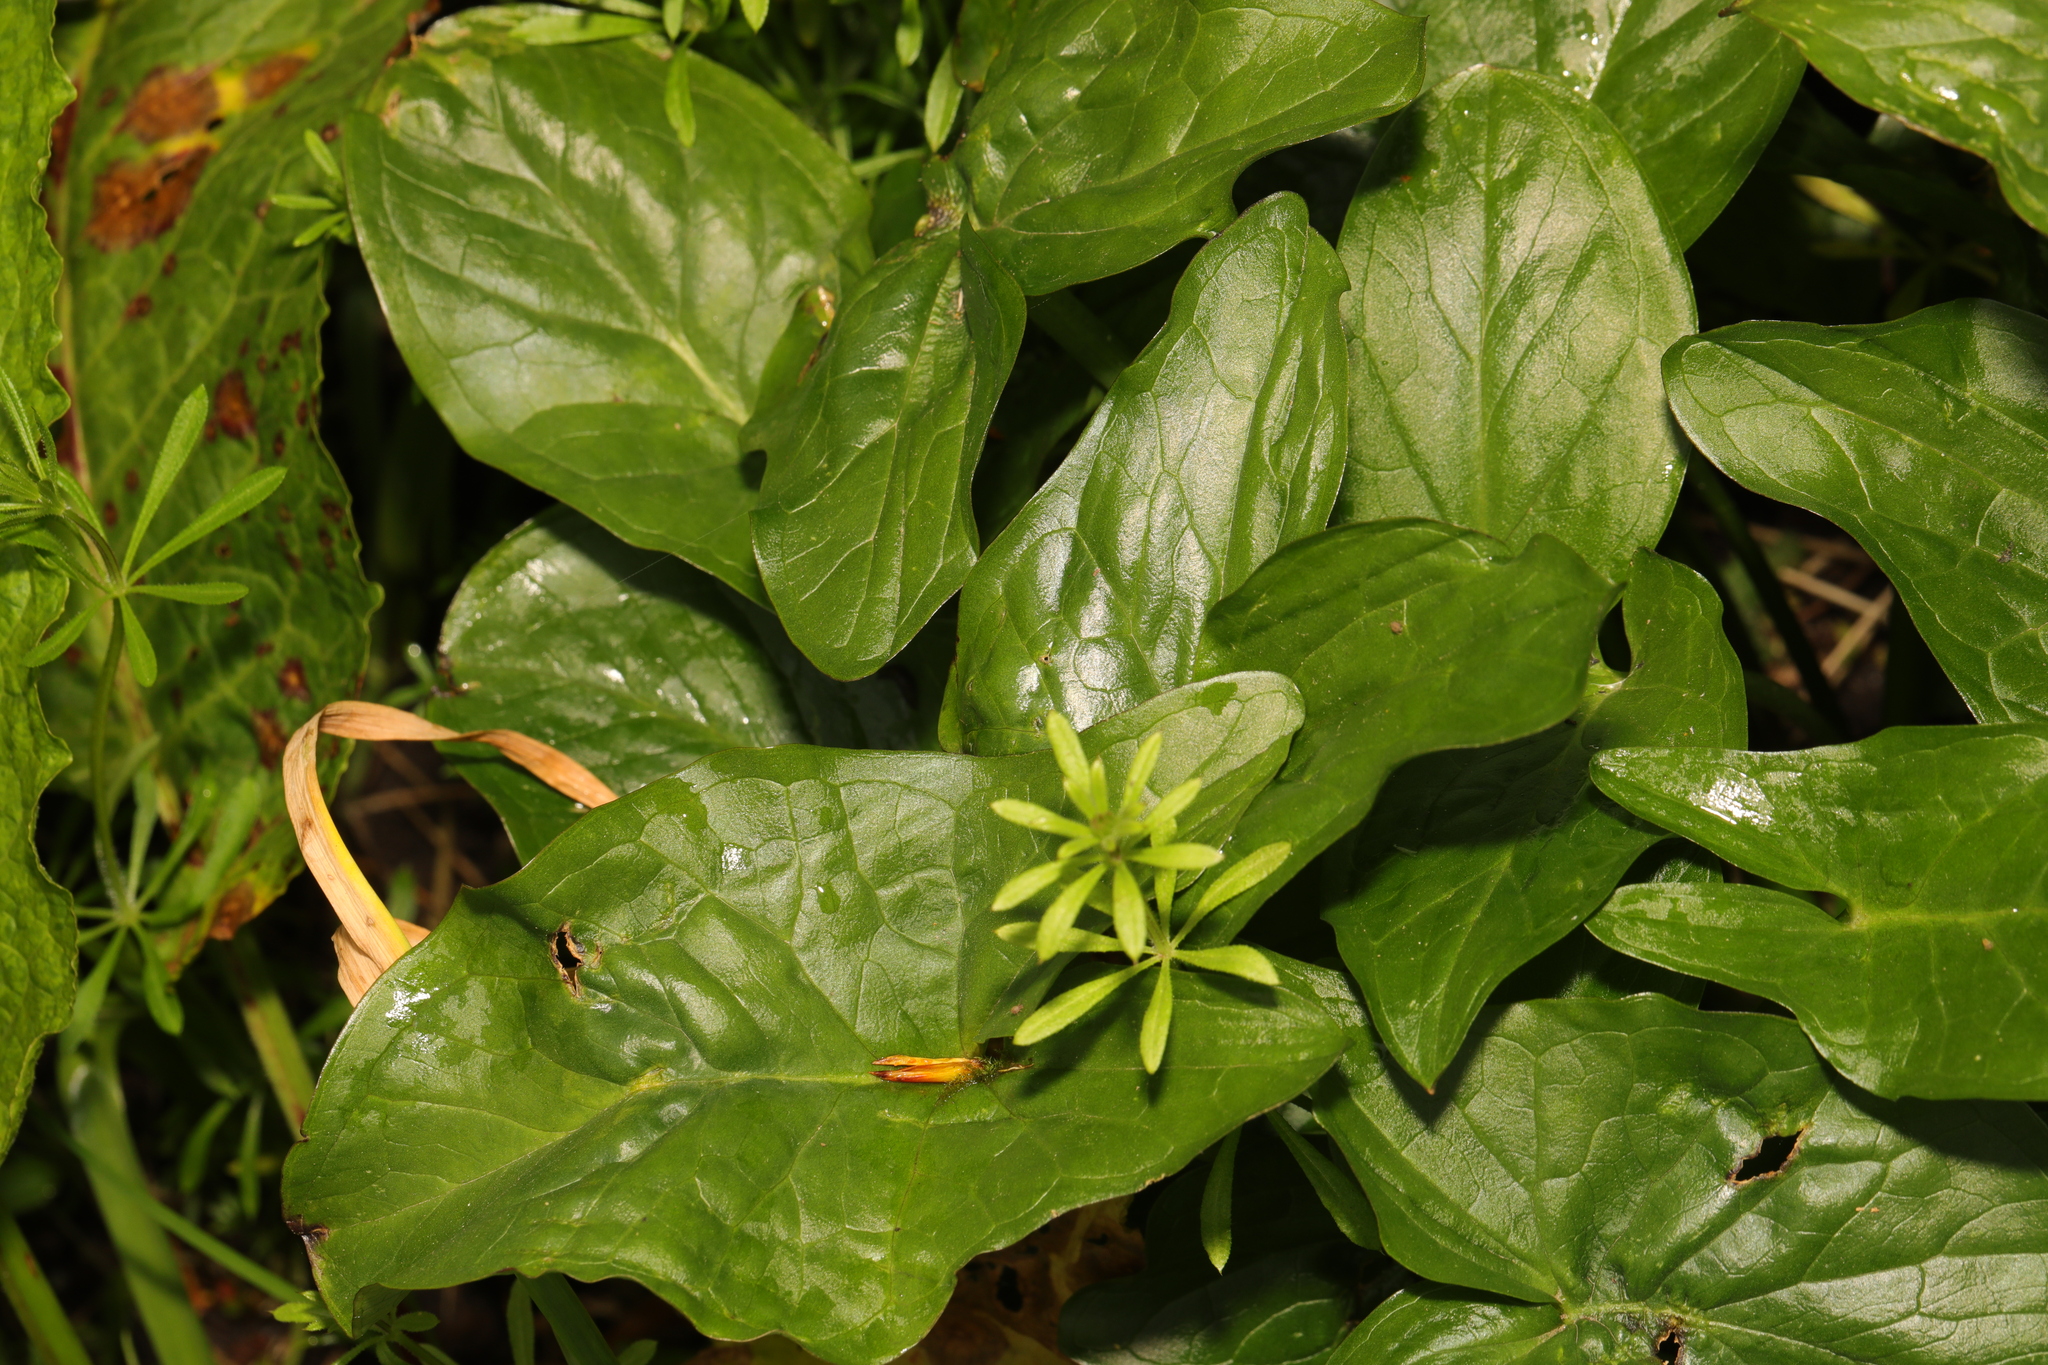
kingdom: Plantae
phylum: Tracheophyta
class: Liliopsida
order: Alismatales
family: Araceae
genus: Arum
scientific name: Arum maculatum
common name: Lords-and-ladies
